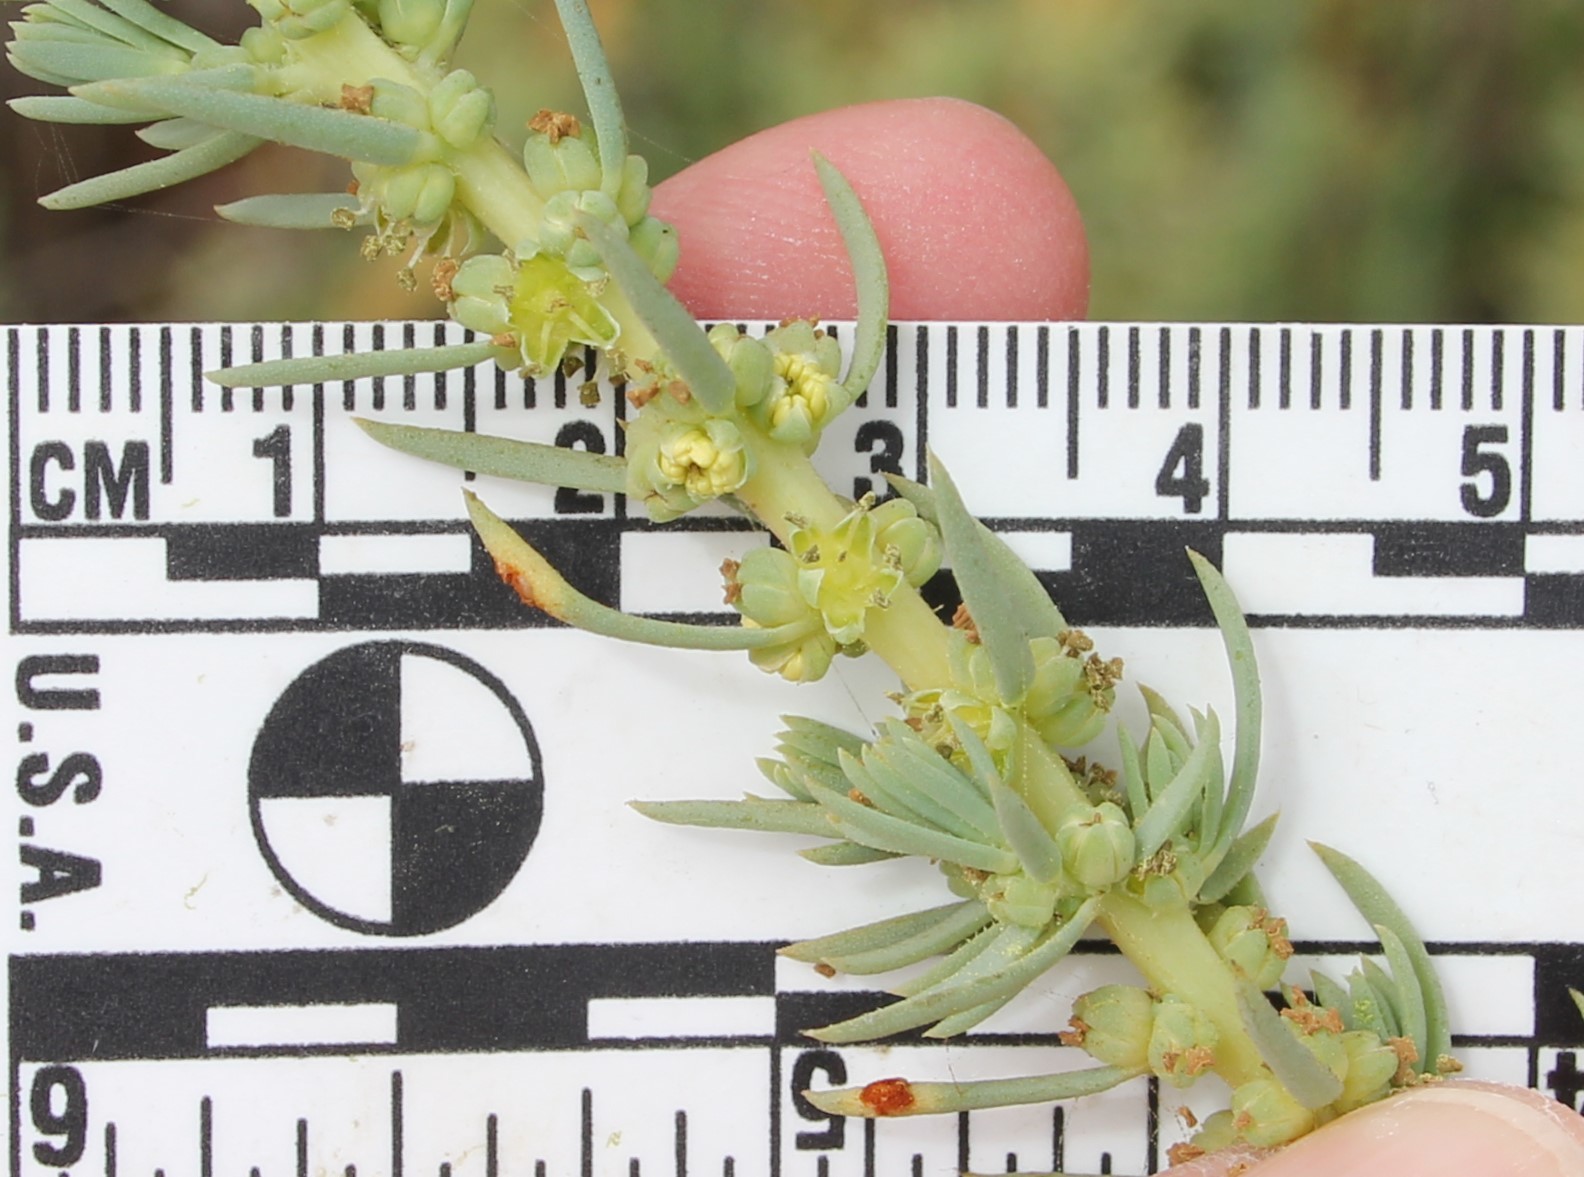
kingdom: Plantae
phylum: Tracheophyta
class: Magnoliopsida
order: Caryophyllales
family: Amaranthaceae
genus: Suaeda
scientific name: Suaeda taxifolia
